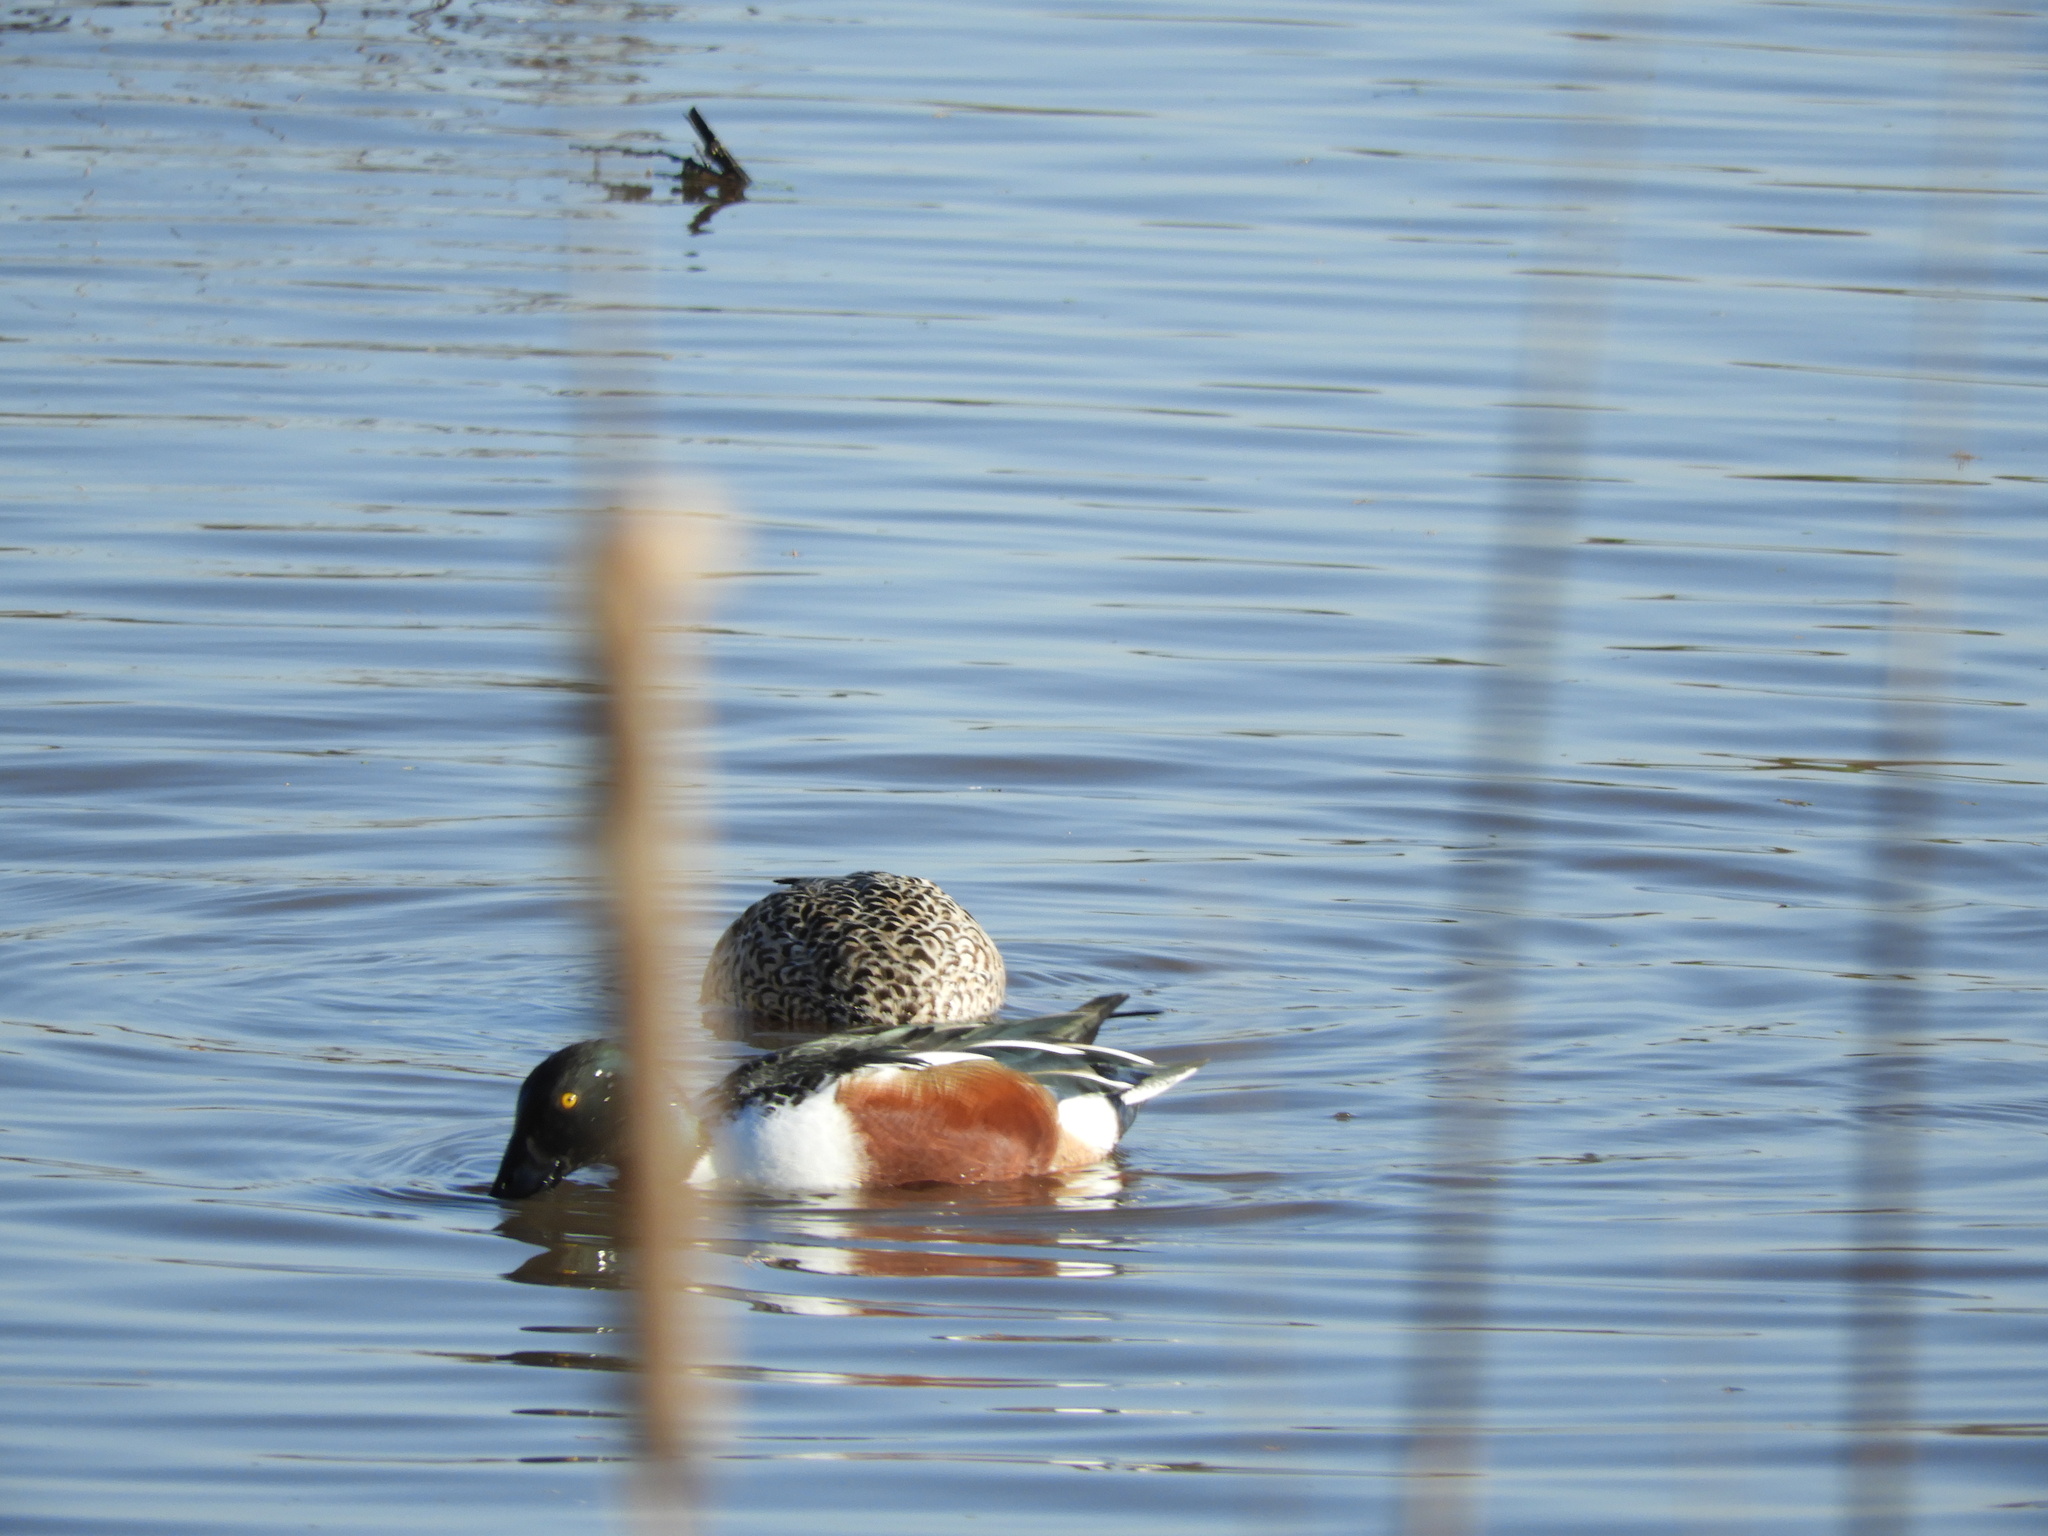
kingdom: Animalia
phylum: Chordata
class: Aves
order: Anseriformes
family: Anatidae
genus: Spatula
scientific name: Spatula clypeata
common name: Northern shoveler
